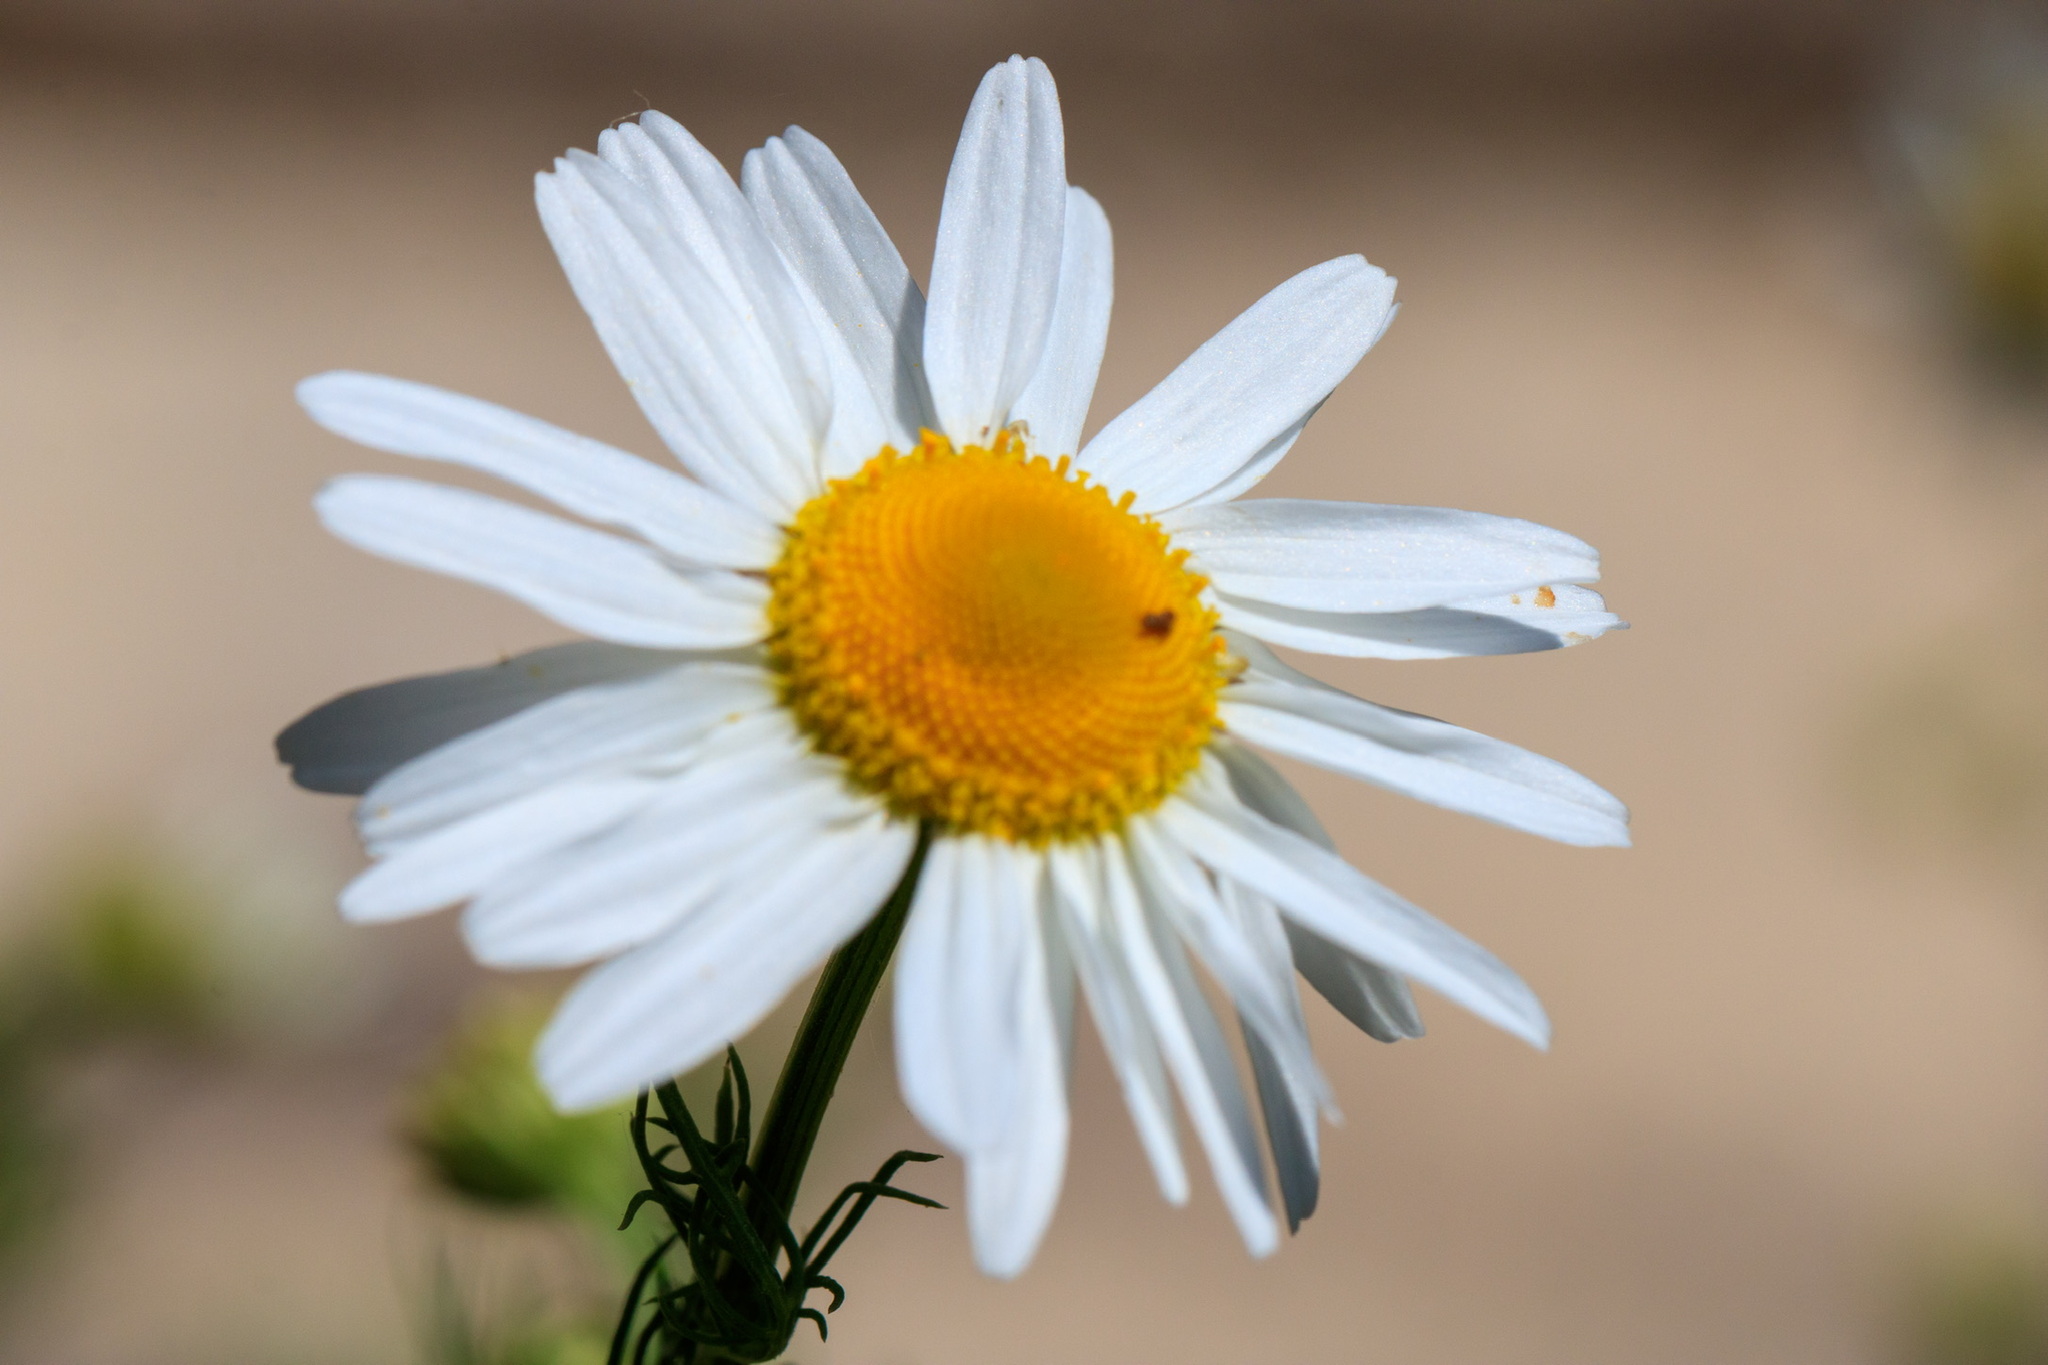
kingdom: Plantae
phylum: Tracheophyta
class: Magnoliopsida
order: Asterales
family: Asteraceae
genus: Tripleurospermum
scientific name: Tripleurospermum inodorum
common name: Scentless mayweed
